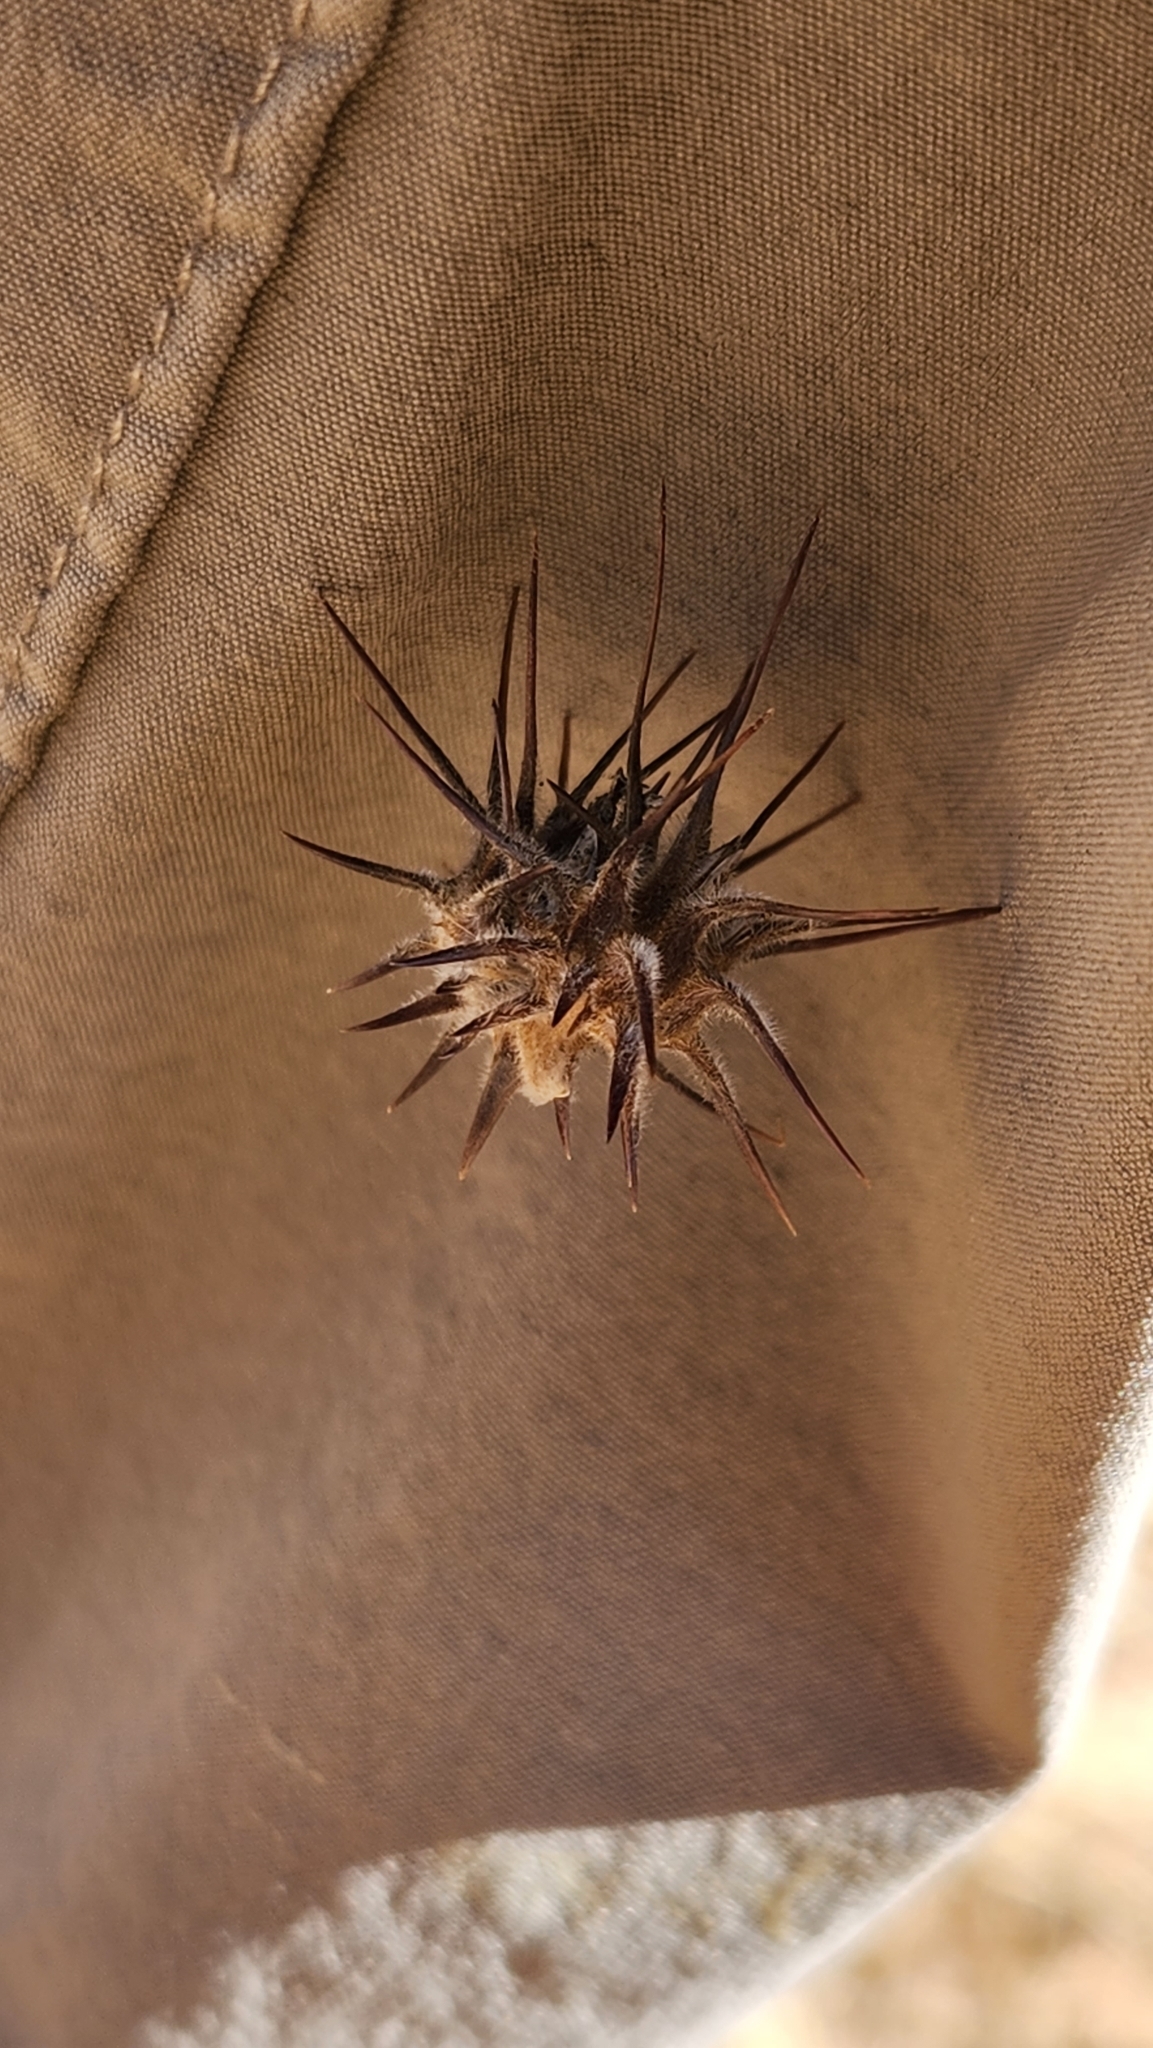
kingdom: Plantae
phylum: Tracheophyta
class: Liliopsida
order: Poales
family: Poaceae
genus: Cenchrus
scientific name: Cenchrus palmeri
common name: Giant sandbur
